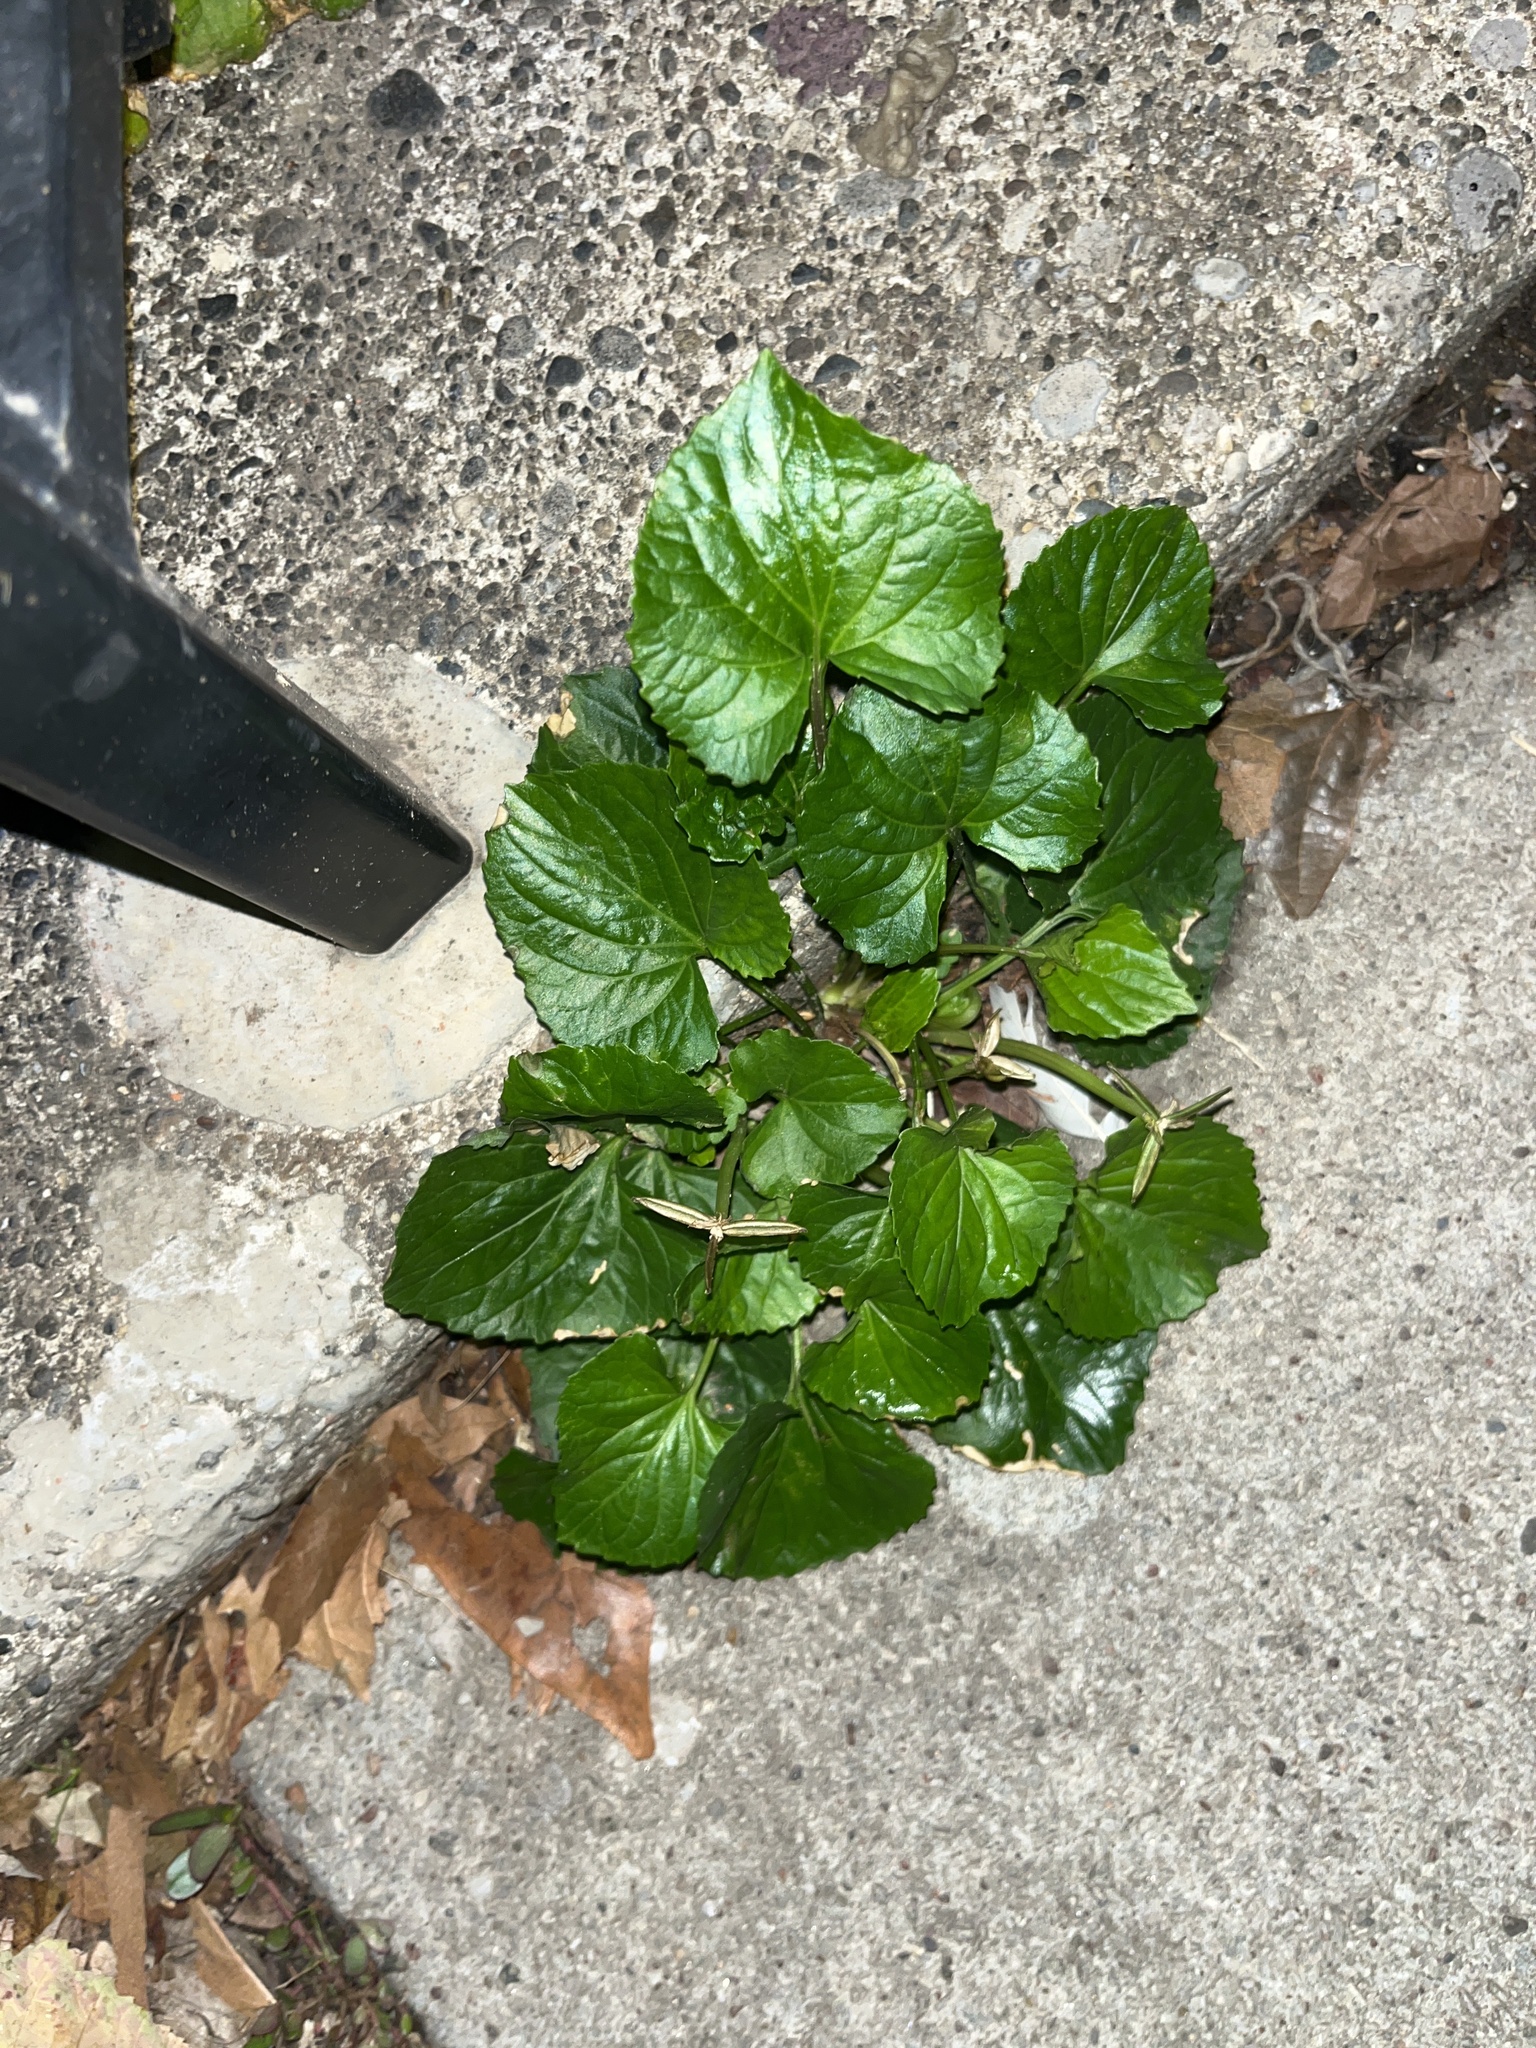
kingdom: Plantae
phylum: Tracheophyta
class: Magnoliopsida
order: Malpighiales
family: Violaceae
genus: Viola
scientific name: Viola sororia
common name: Dooryard violet
